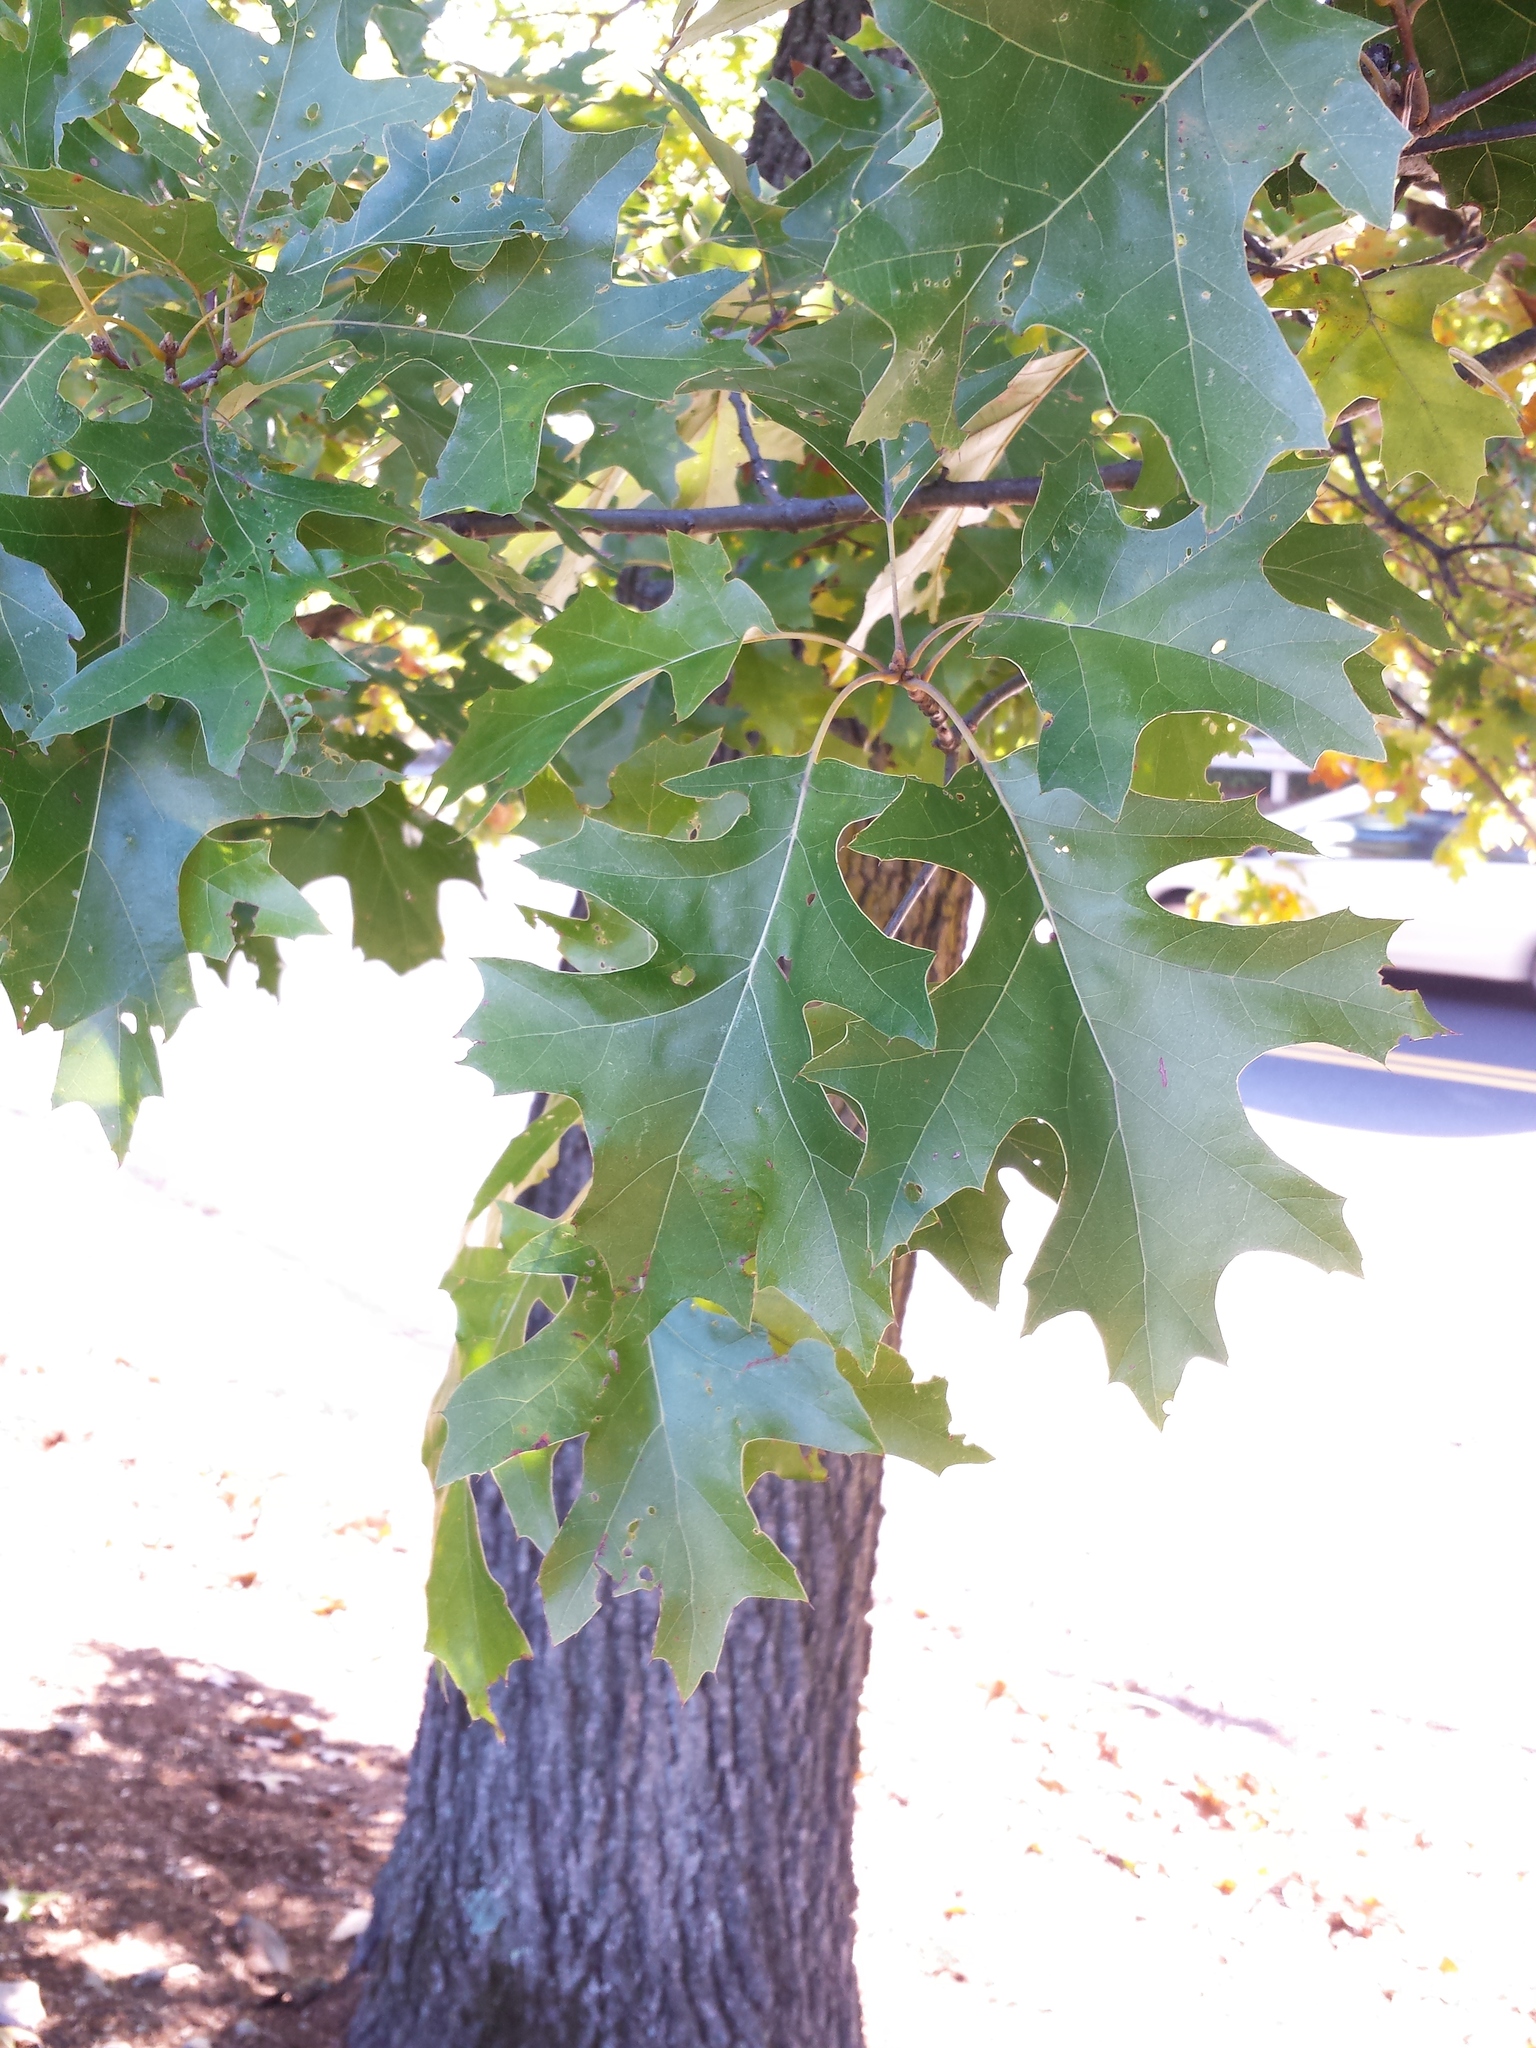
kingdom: Plantae
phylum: Tracheophyta
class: Magnoliopsida
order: Fagales
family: Fagaceae
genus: Quercus
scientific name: Quercus velutina
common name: Black oak
